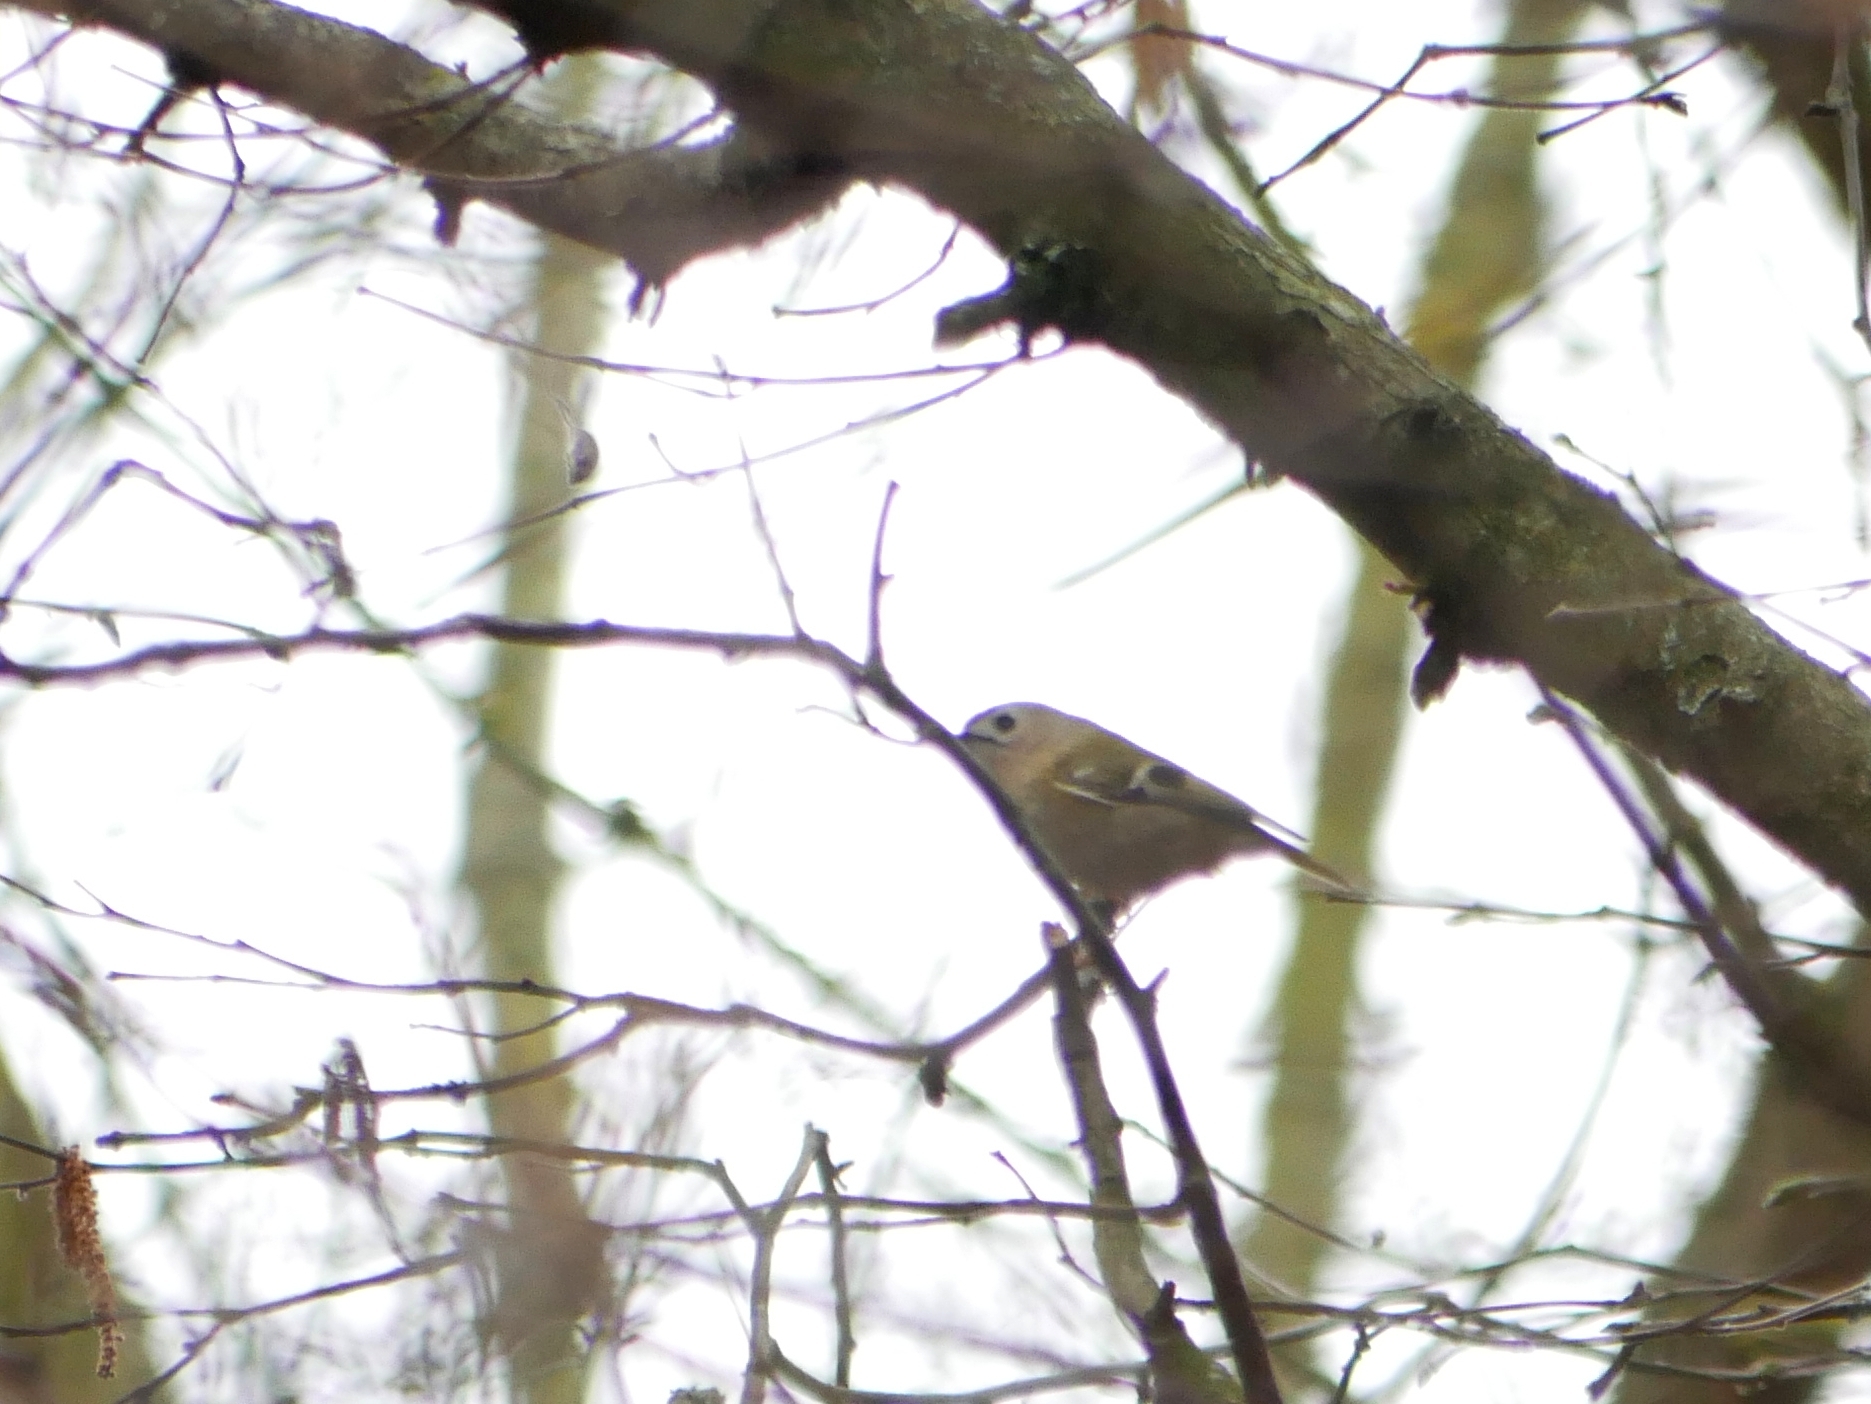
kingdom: Animalia
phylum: Chordata
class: Aves
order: Passeriformes
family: Regulidae
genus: Regulus
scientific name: Regulus regulus
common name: Goldcrest
